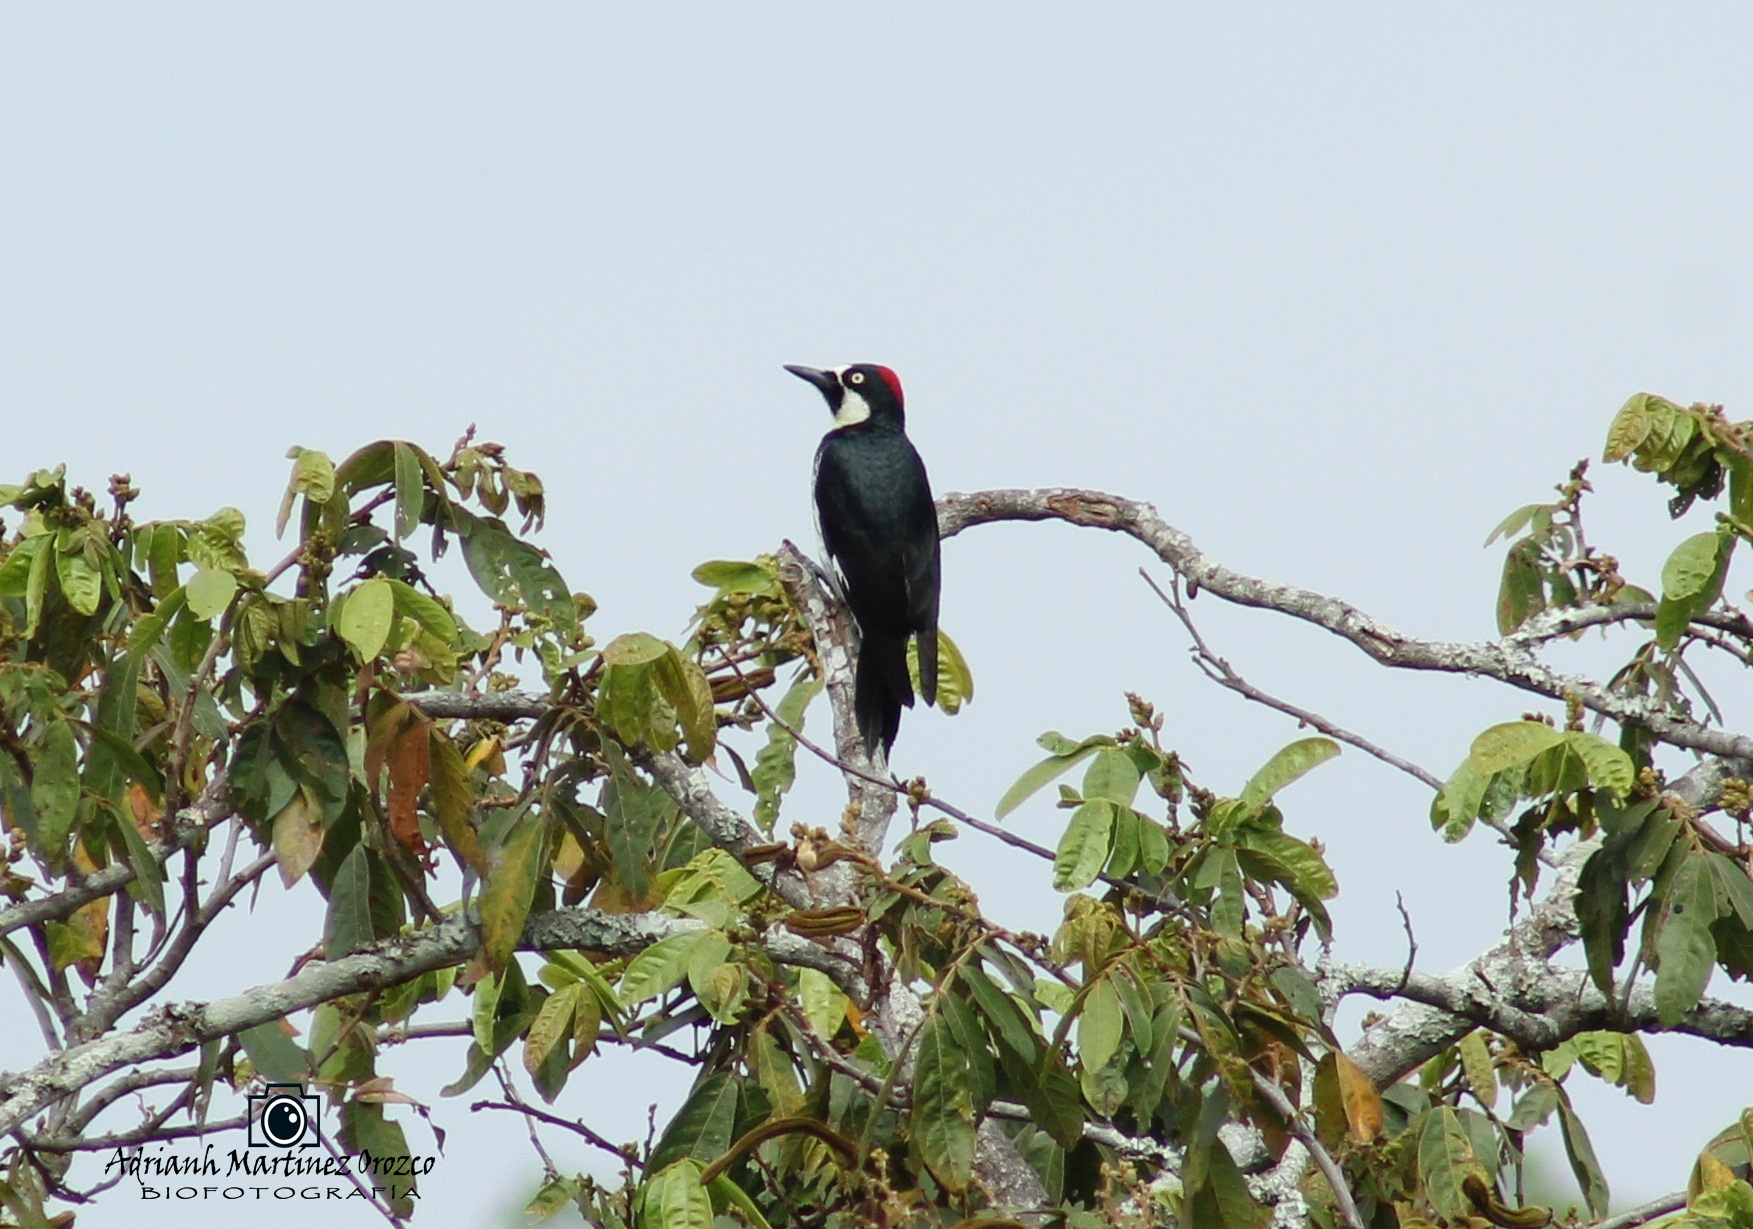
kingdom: Animalia
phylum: Chordata
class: Aves
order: Piciformes
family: Picidae
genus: Melanerpes
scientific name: Melanerpes formicivorus
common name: Acorn woodpecker
